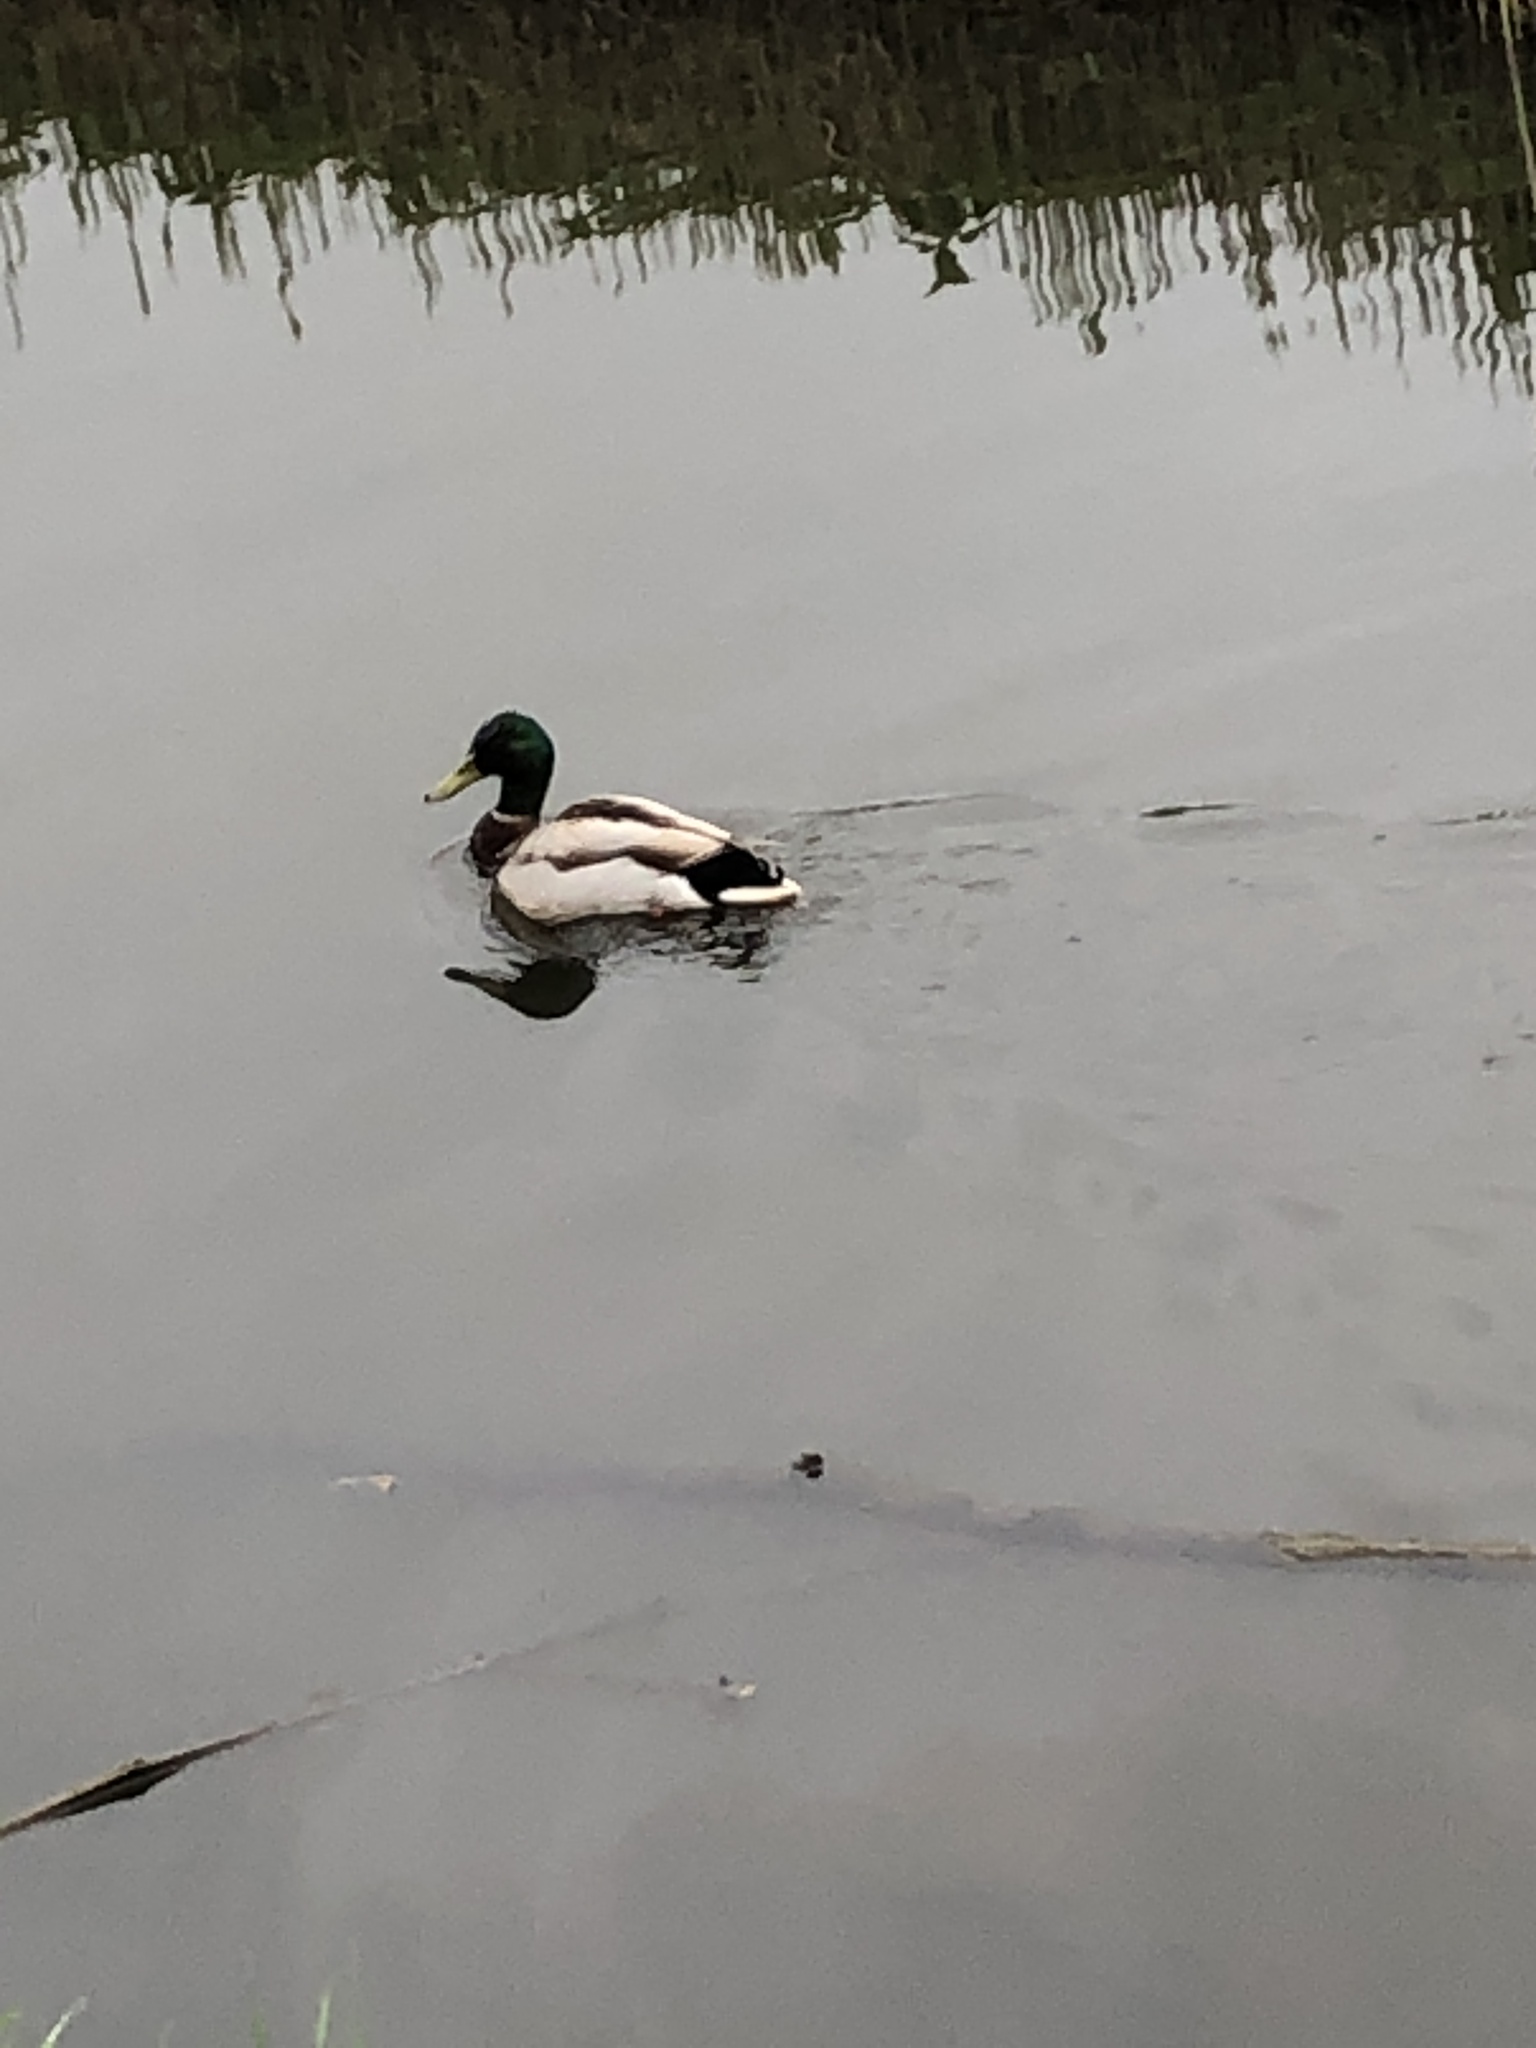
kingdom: Animalia
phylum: Chordata
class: Aves
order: Anseriformes
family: Anatidae
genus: Anas
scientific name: Anas platyrhynchos
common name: Mallard
